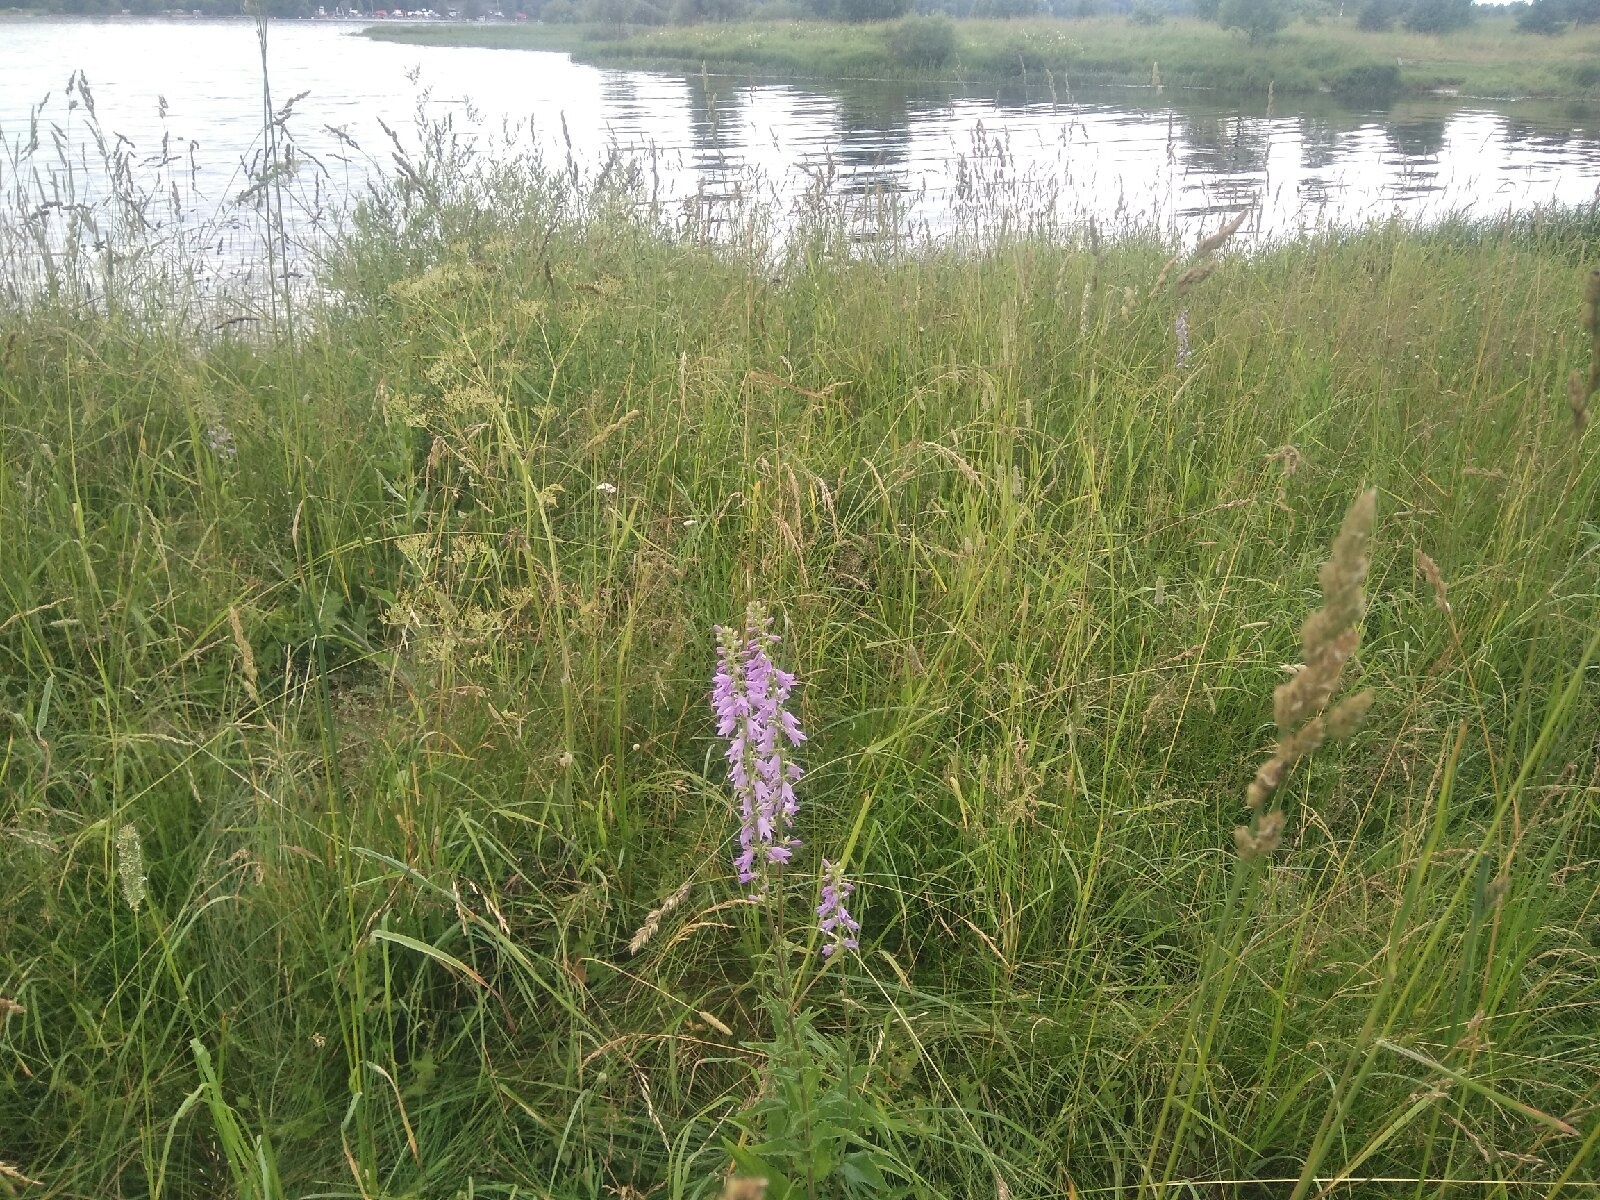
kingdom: Plantae
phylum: Tracheophyta
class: Magnoliopsida
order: Asterales
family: Campanulaceae
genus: Campanula
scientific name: Campanula bononiensis
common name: Pale bellflower
